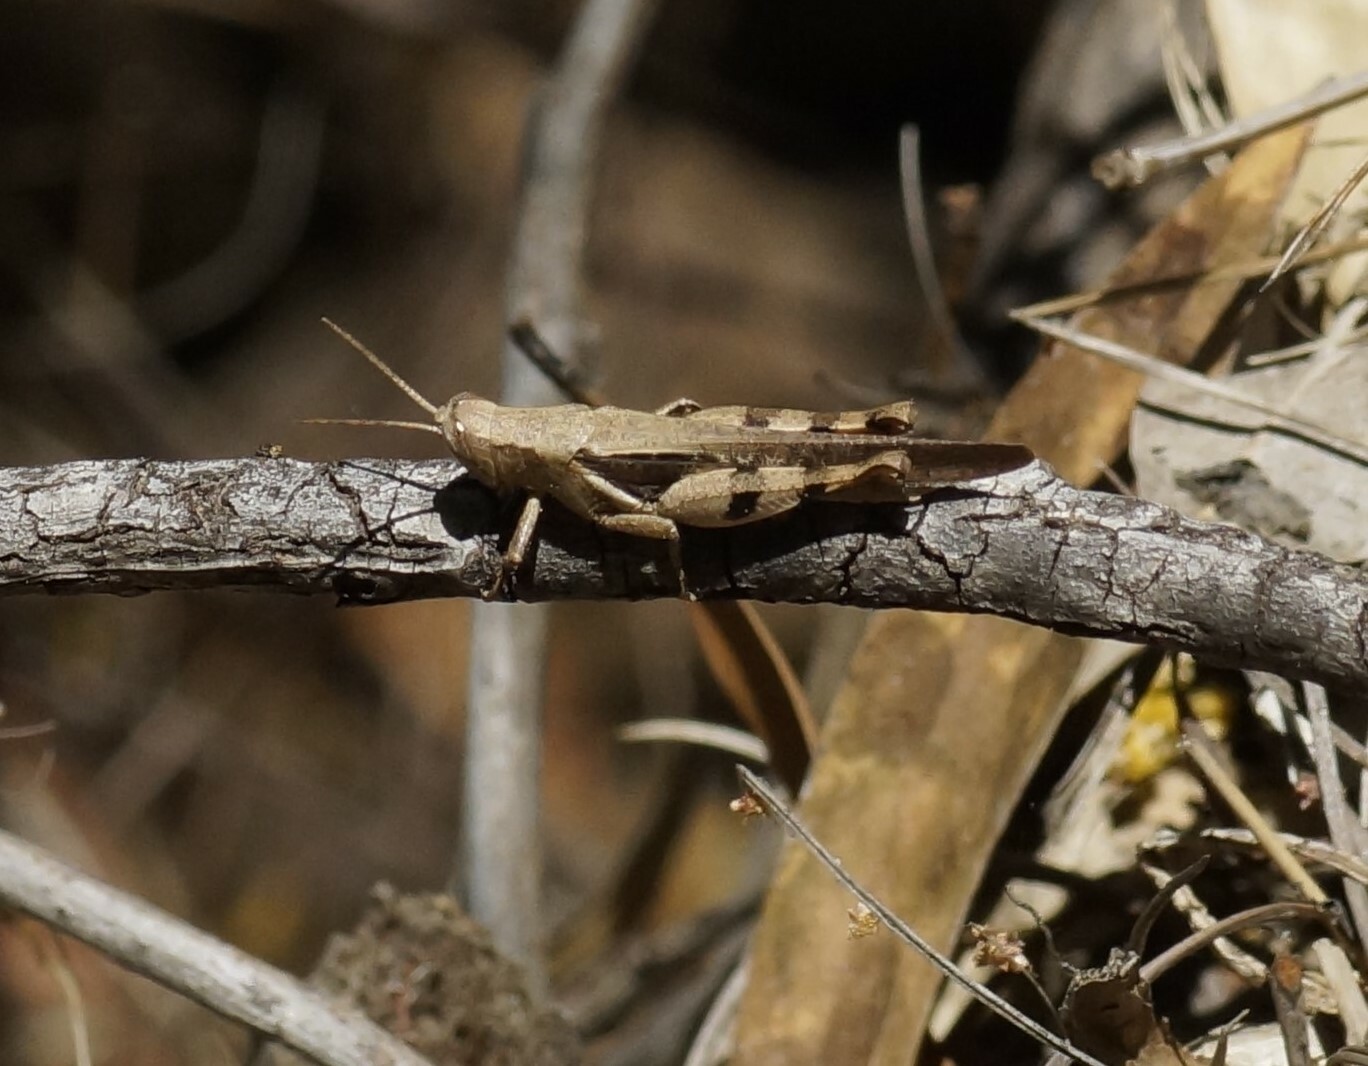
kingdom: Animalia
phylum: Arthropoda
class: Insecta
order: Orthoptera
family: Acrididae
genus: Stenocatantops
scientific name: Stenocatantops angustifrons
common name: Common tropical sharptail
